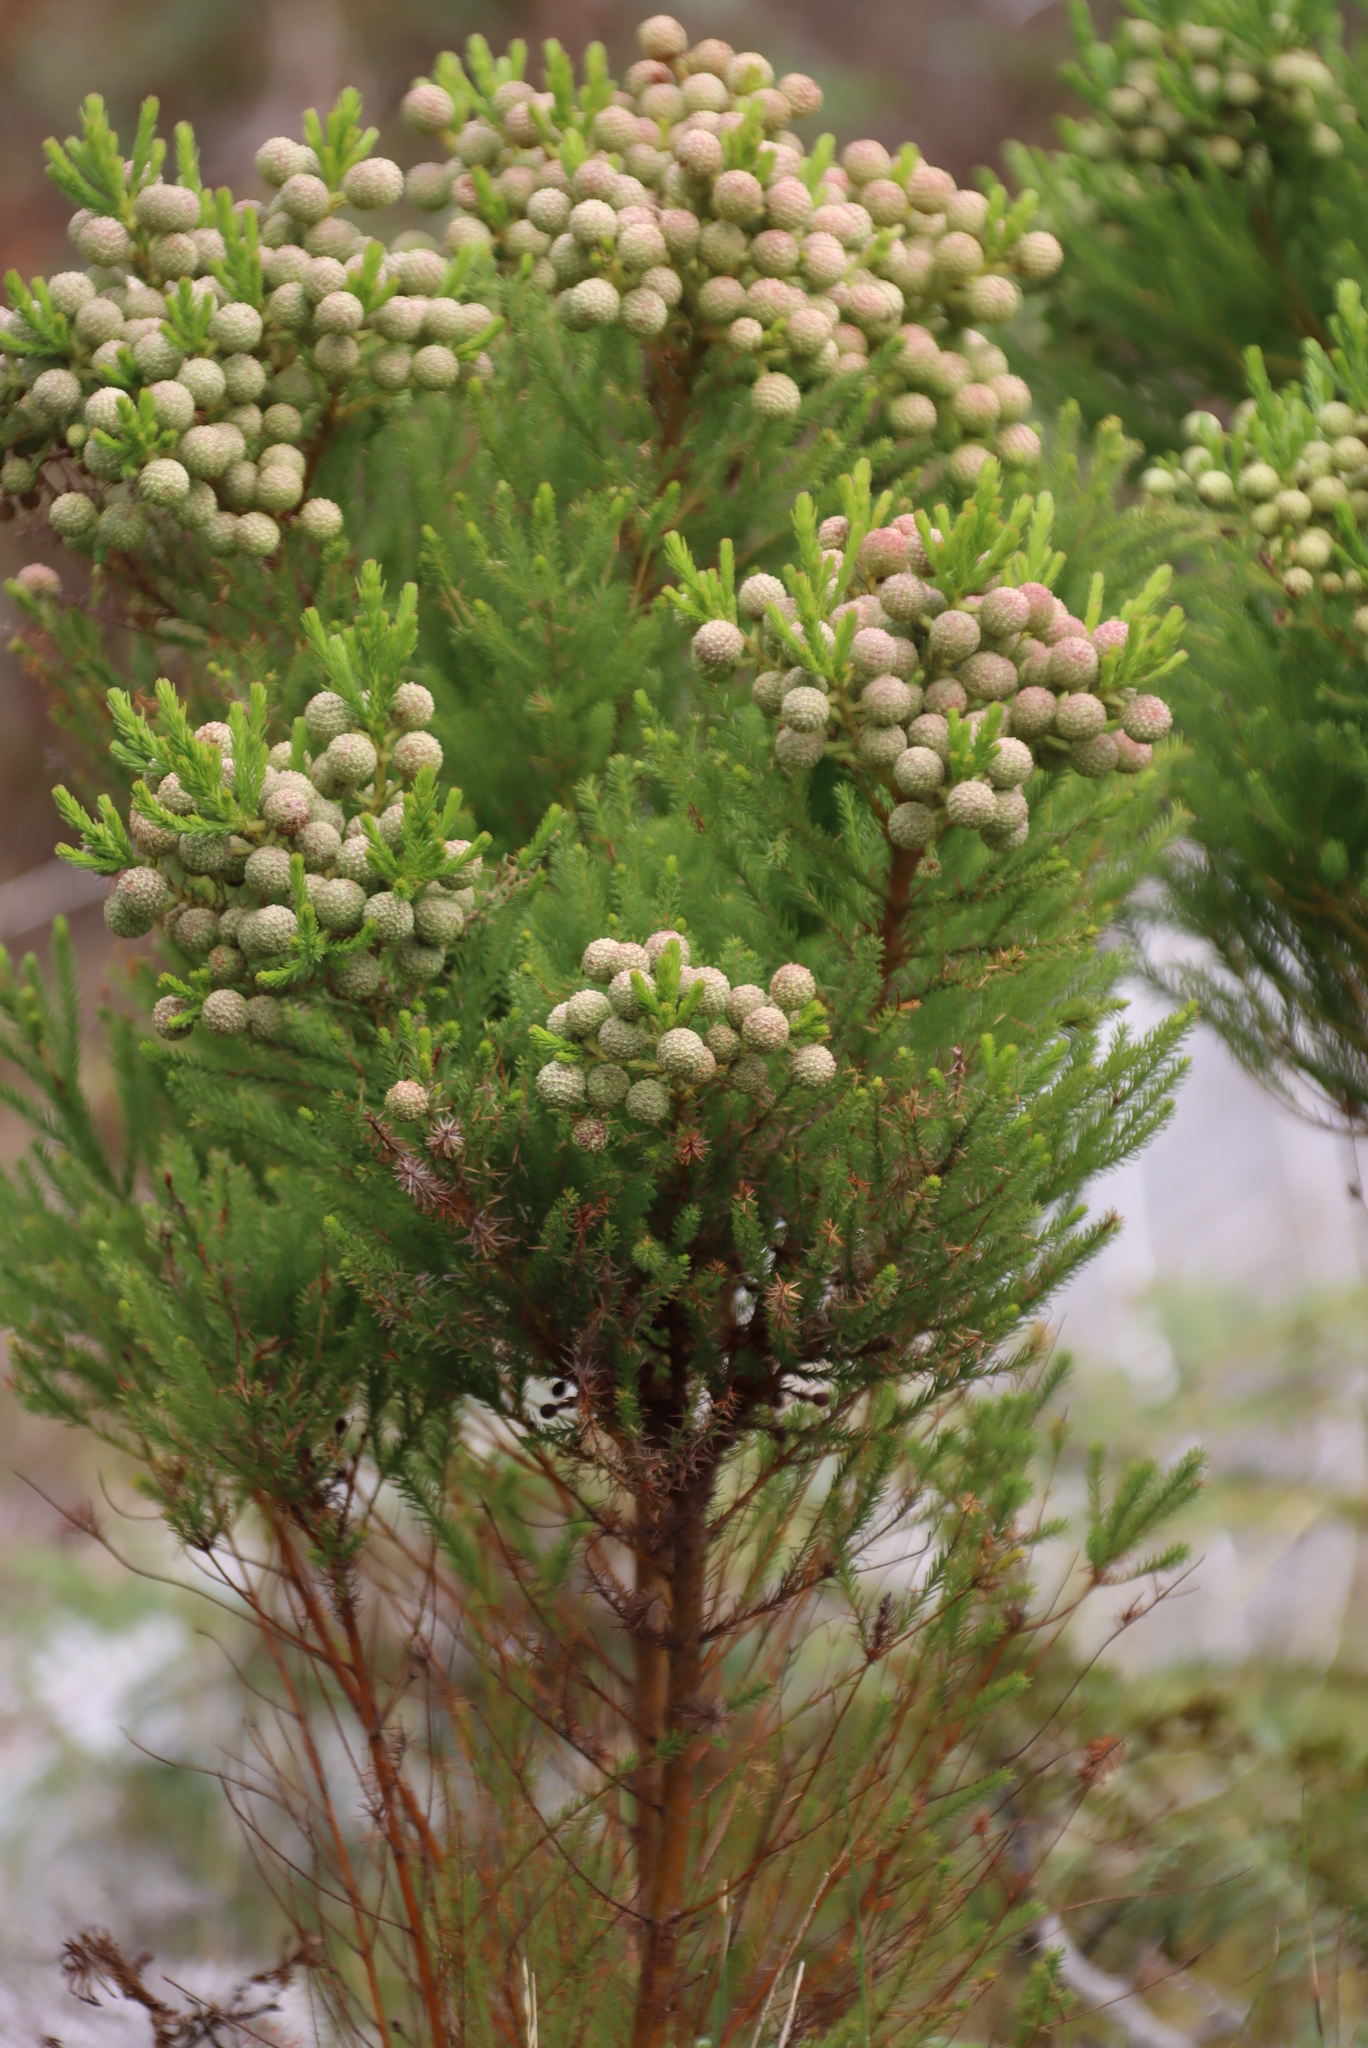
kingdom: Plantae
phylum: Tracheophyta
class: Magnoliopsida
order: Bruniales
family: Bruniaceae
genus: Berzelia
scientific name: Berzelia lanuginosa
